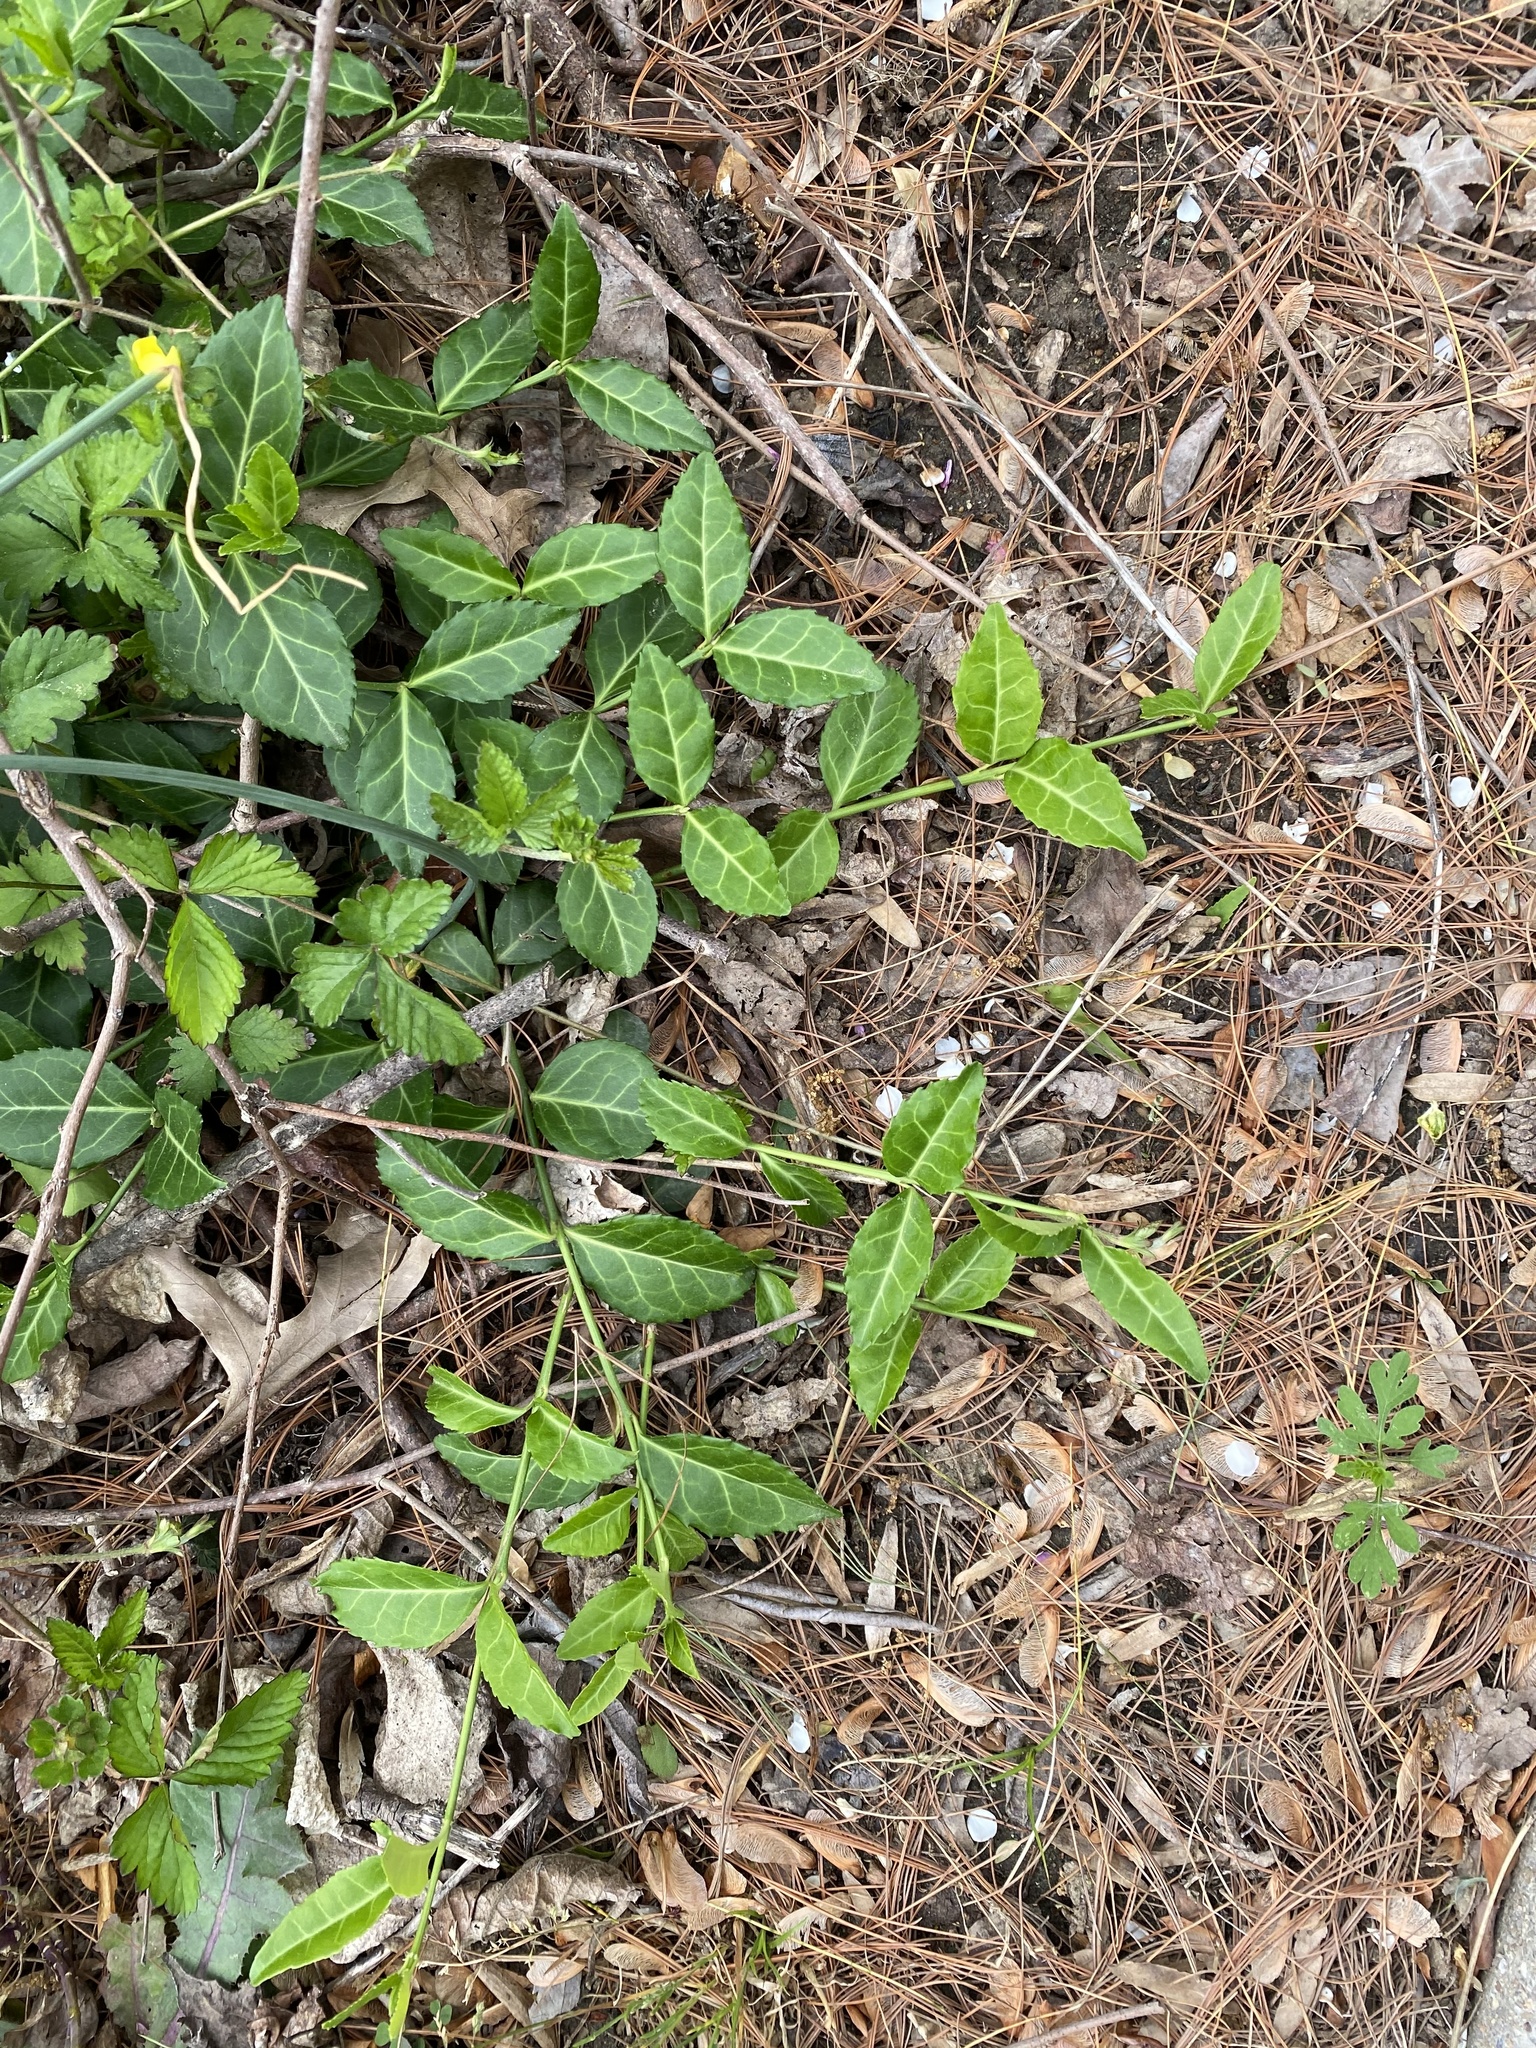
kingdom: Plantae
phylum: Tracheophyta
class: Magnoliopsida
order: Celastrales
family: Celastraceae
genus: Euonymus
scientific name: Euonymus fortunei
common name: Climbing euonymus
